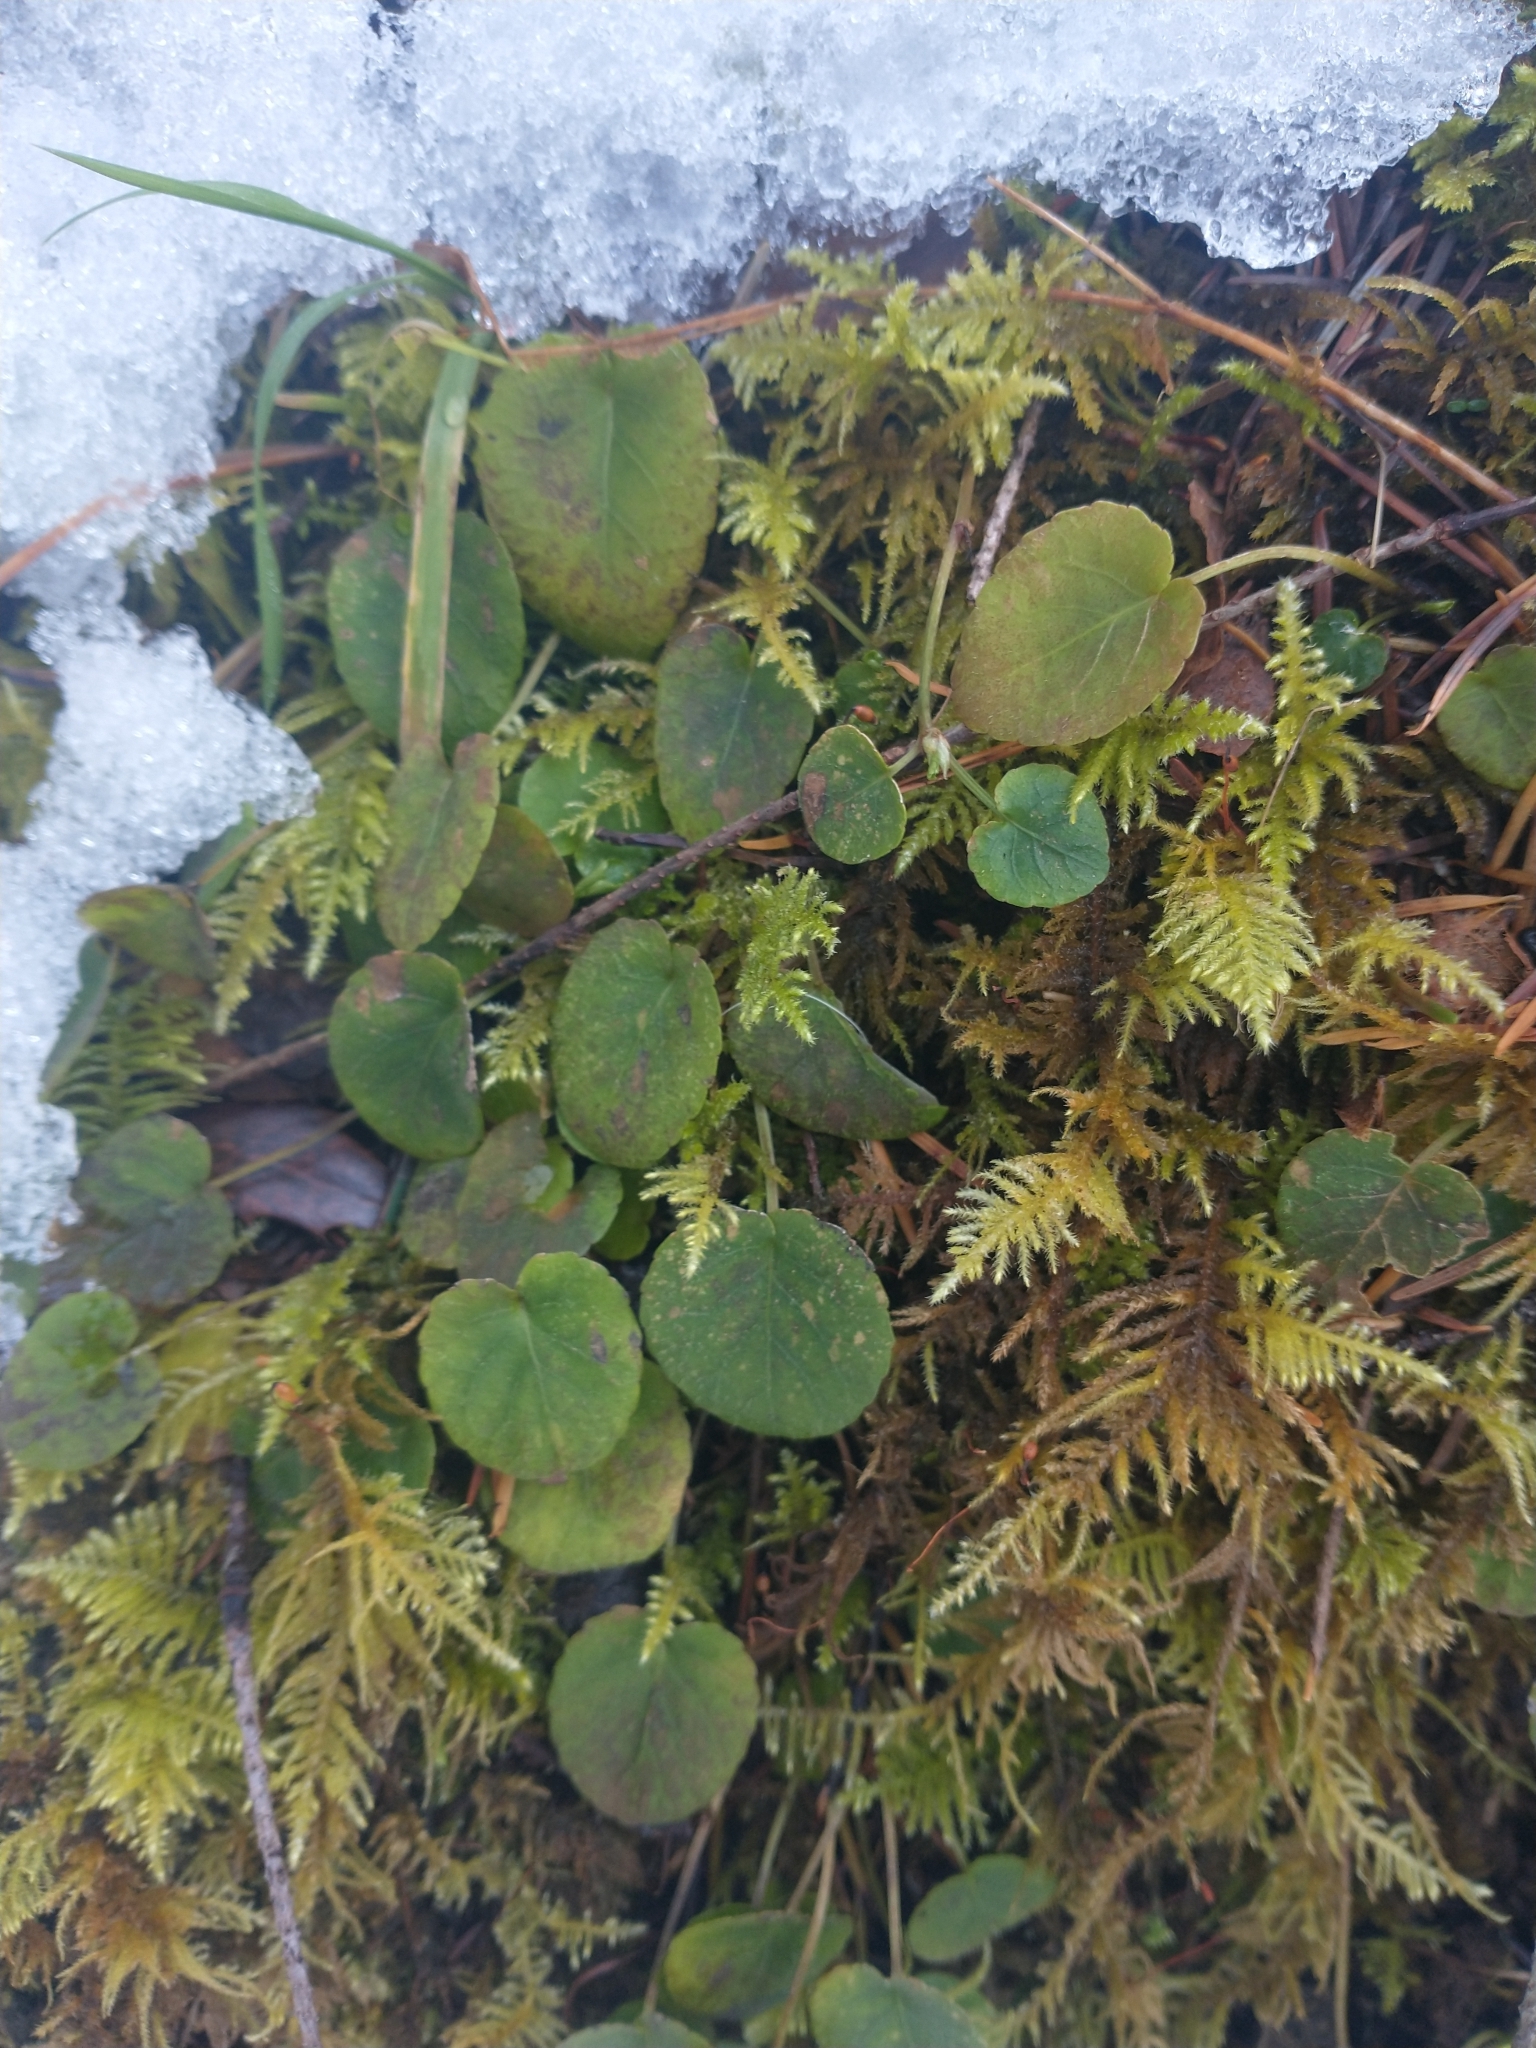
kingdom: Plantae
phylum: Tracheophyta
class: Magnoliopsida
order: Malpighiales
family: Violaceae
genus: Viola
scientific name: Viola sempervirens
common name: Evergreen violet
